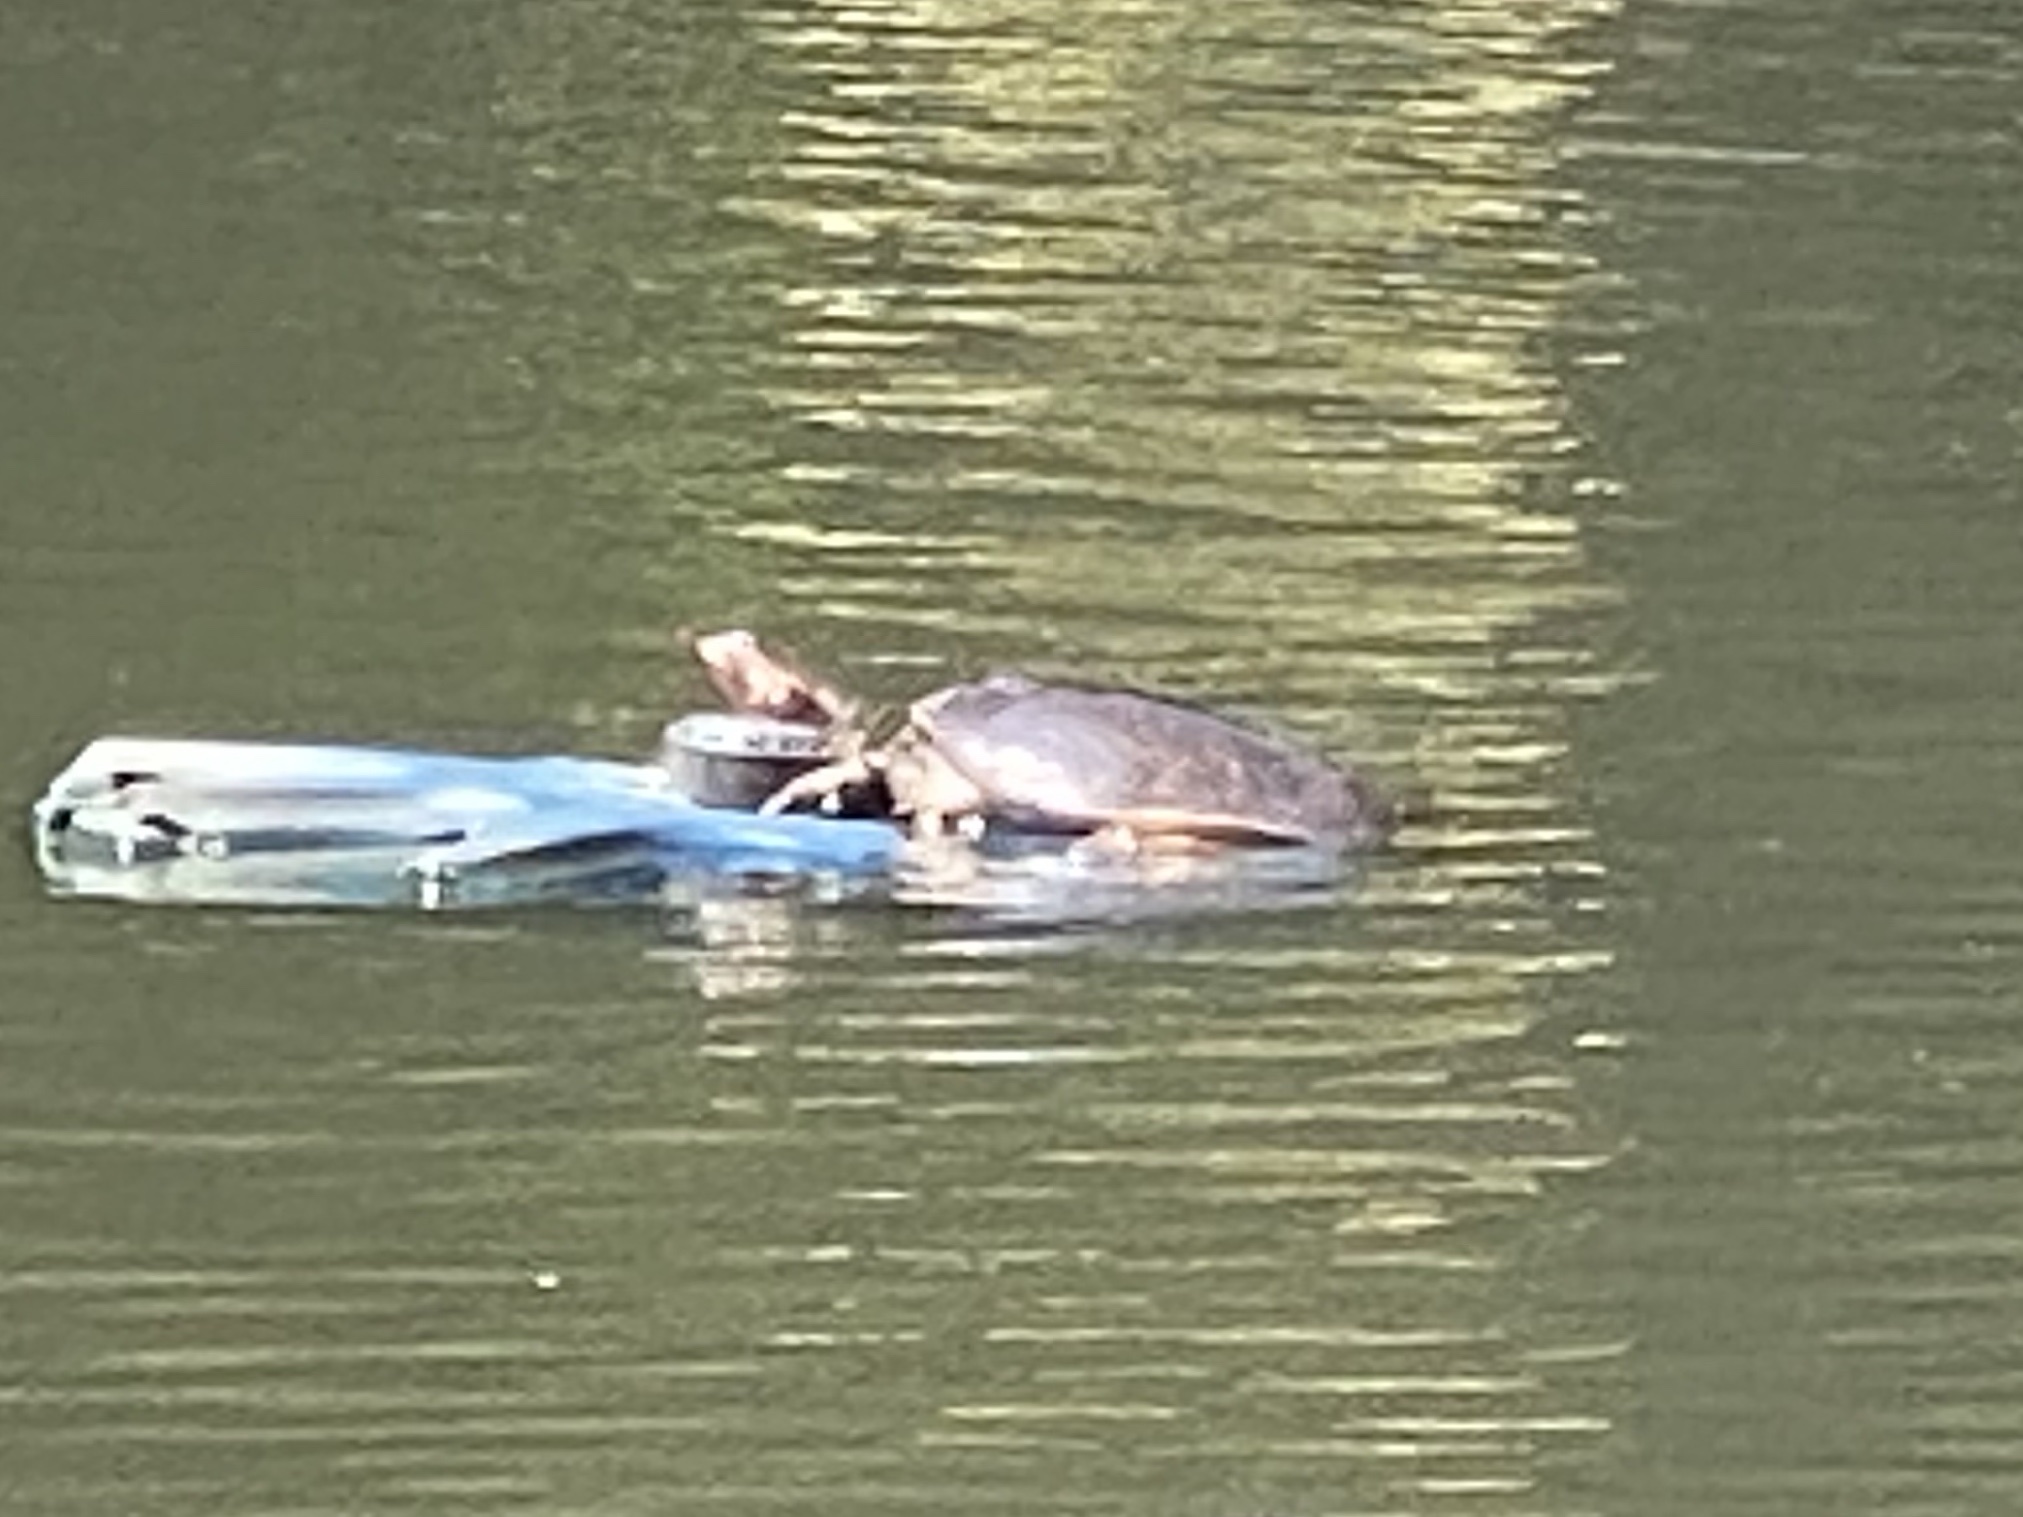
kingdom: Animalia
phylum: Chordata
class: Testudines
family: Trionychidae
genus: Apalone
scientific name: Apalone ferox
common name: Florida softshell turtle
